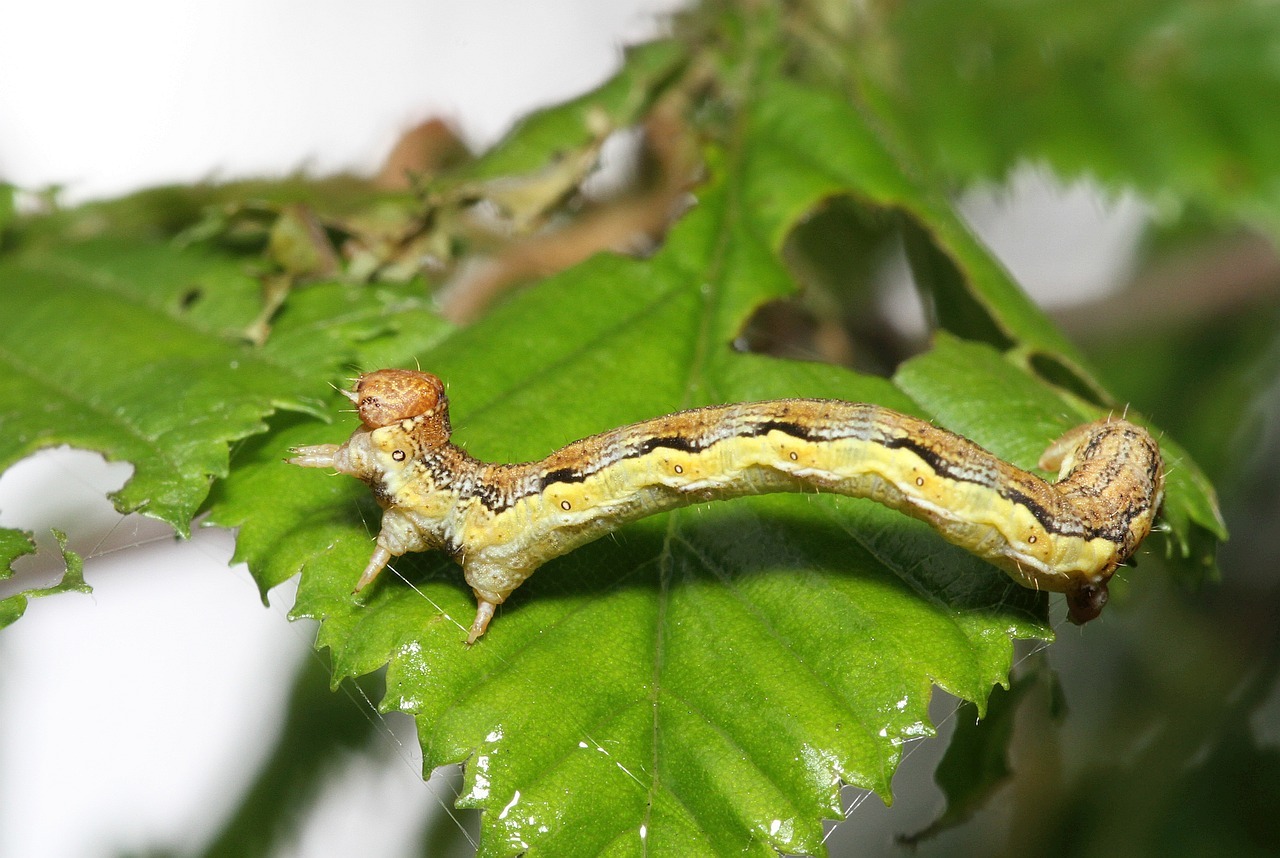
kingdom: Animalia
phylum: Arthropoda
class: Insecta
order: Lepidoptera
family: Geometridae
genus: Erannis
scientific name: Erannis defoliaria
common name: Mottled umber
